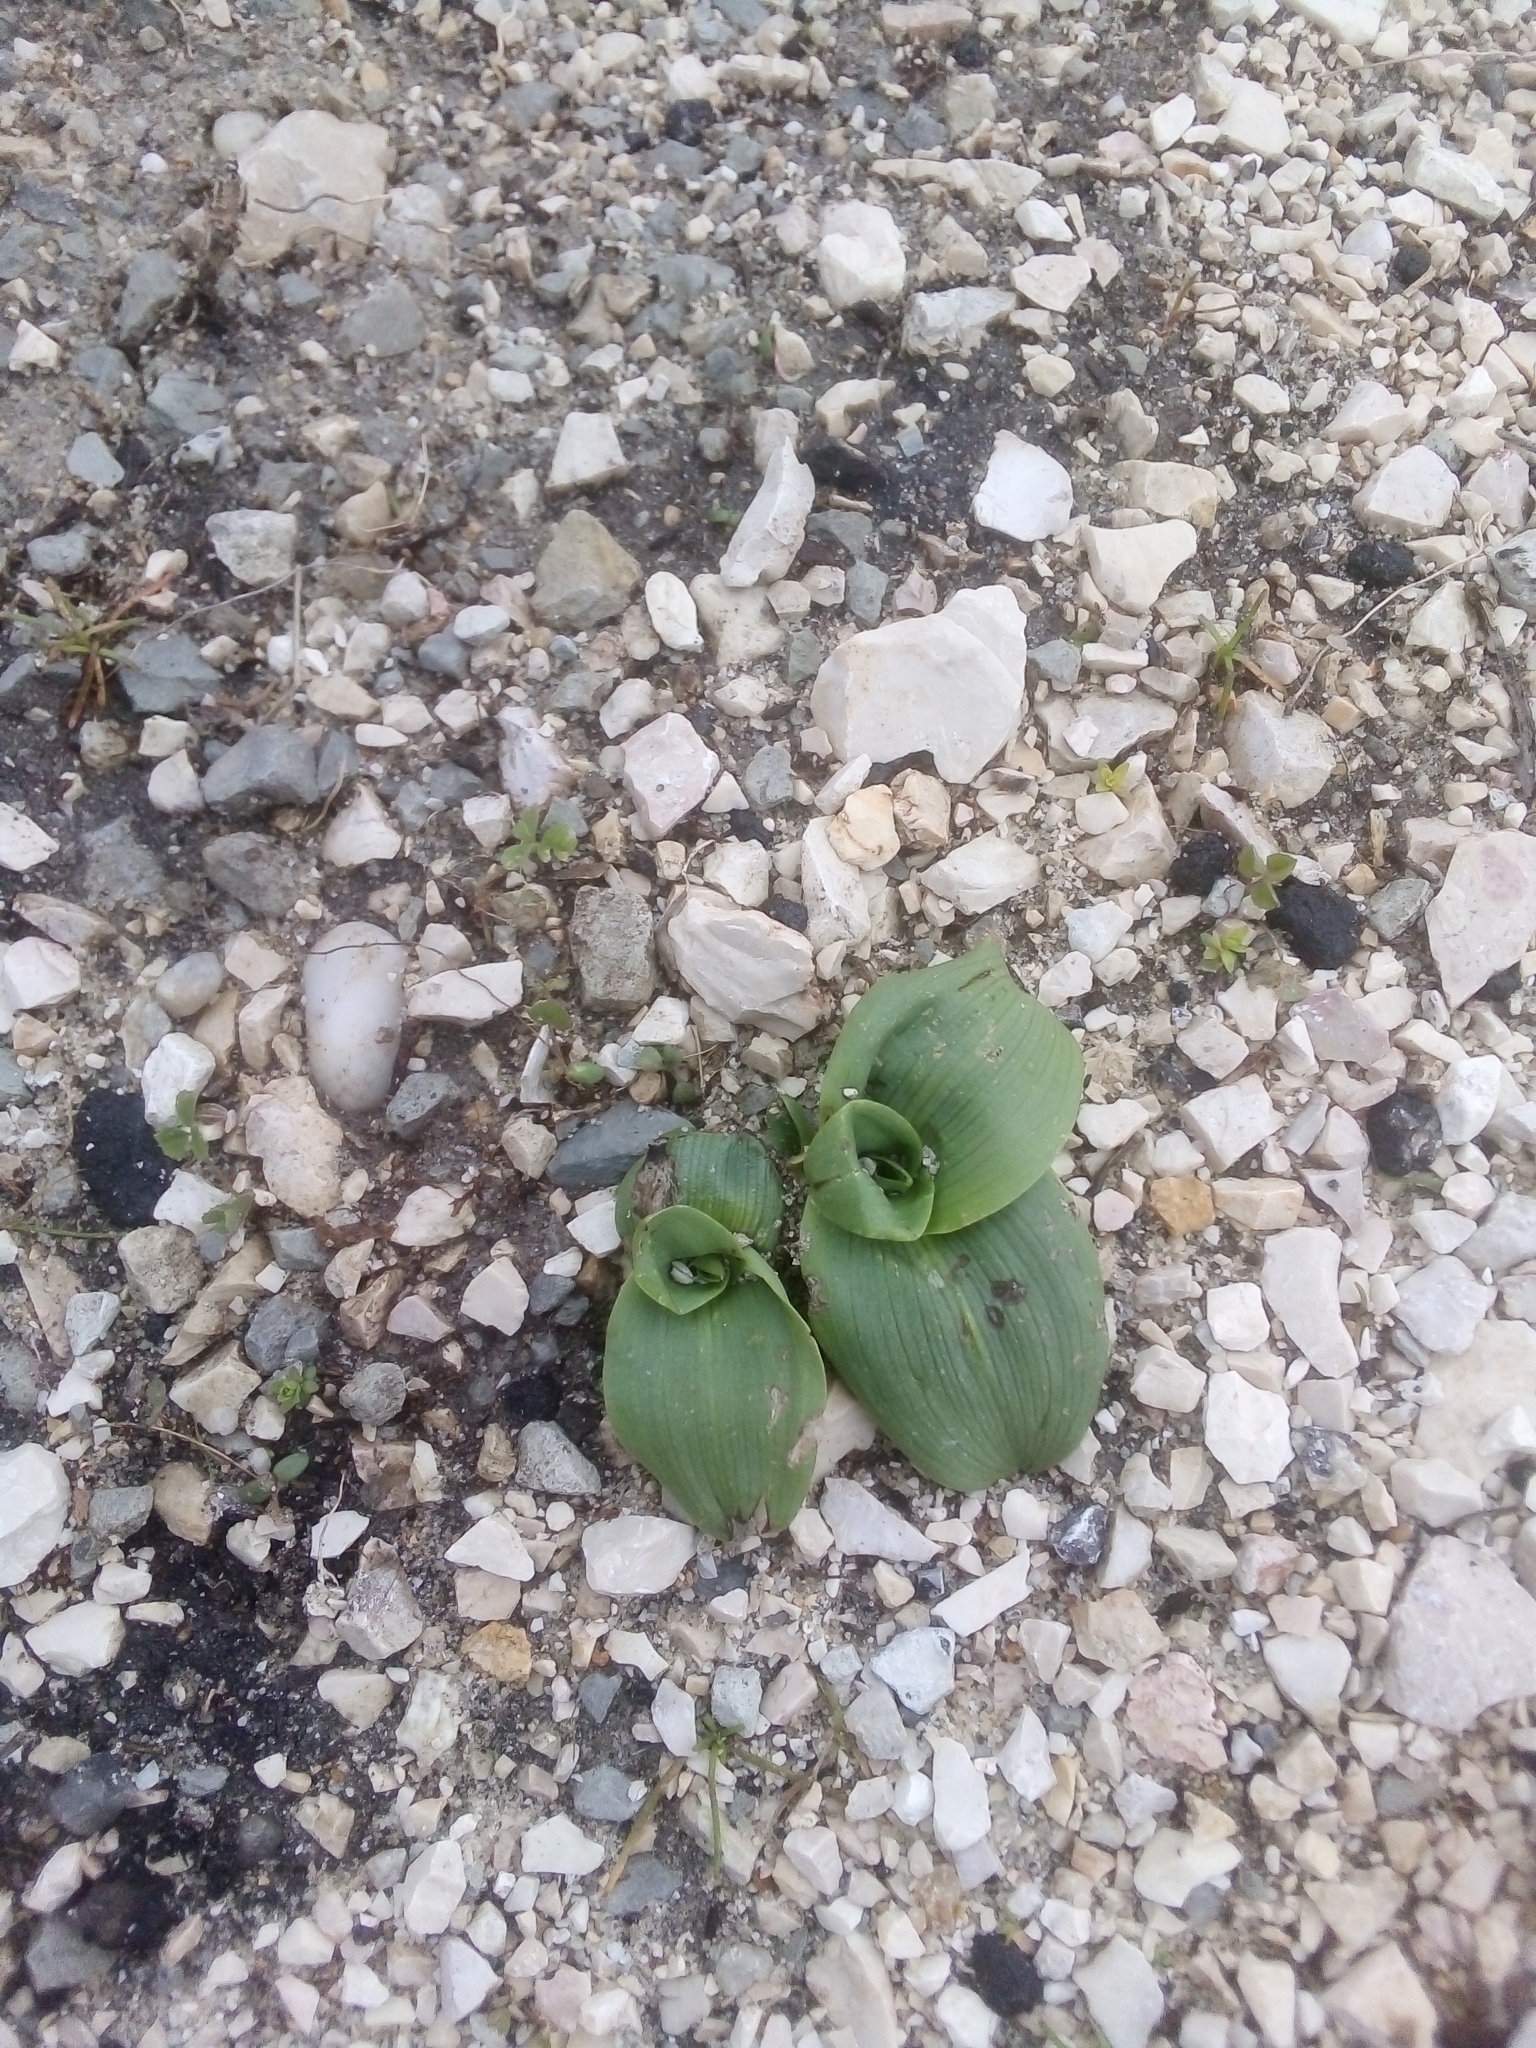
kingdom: Plantae
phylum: Tracheophyta
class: Liliopsida
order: Asparagales
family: Orchidaceae
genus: Himantoglossum
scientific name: Himantoglossum robertianum
